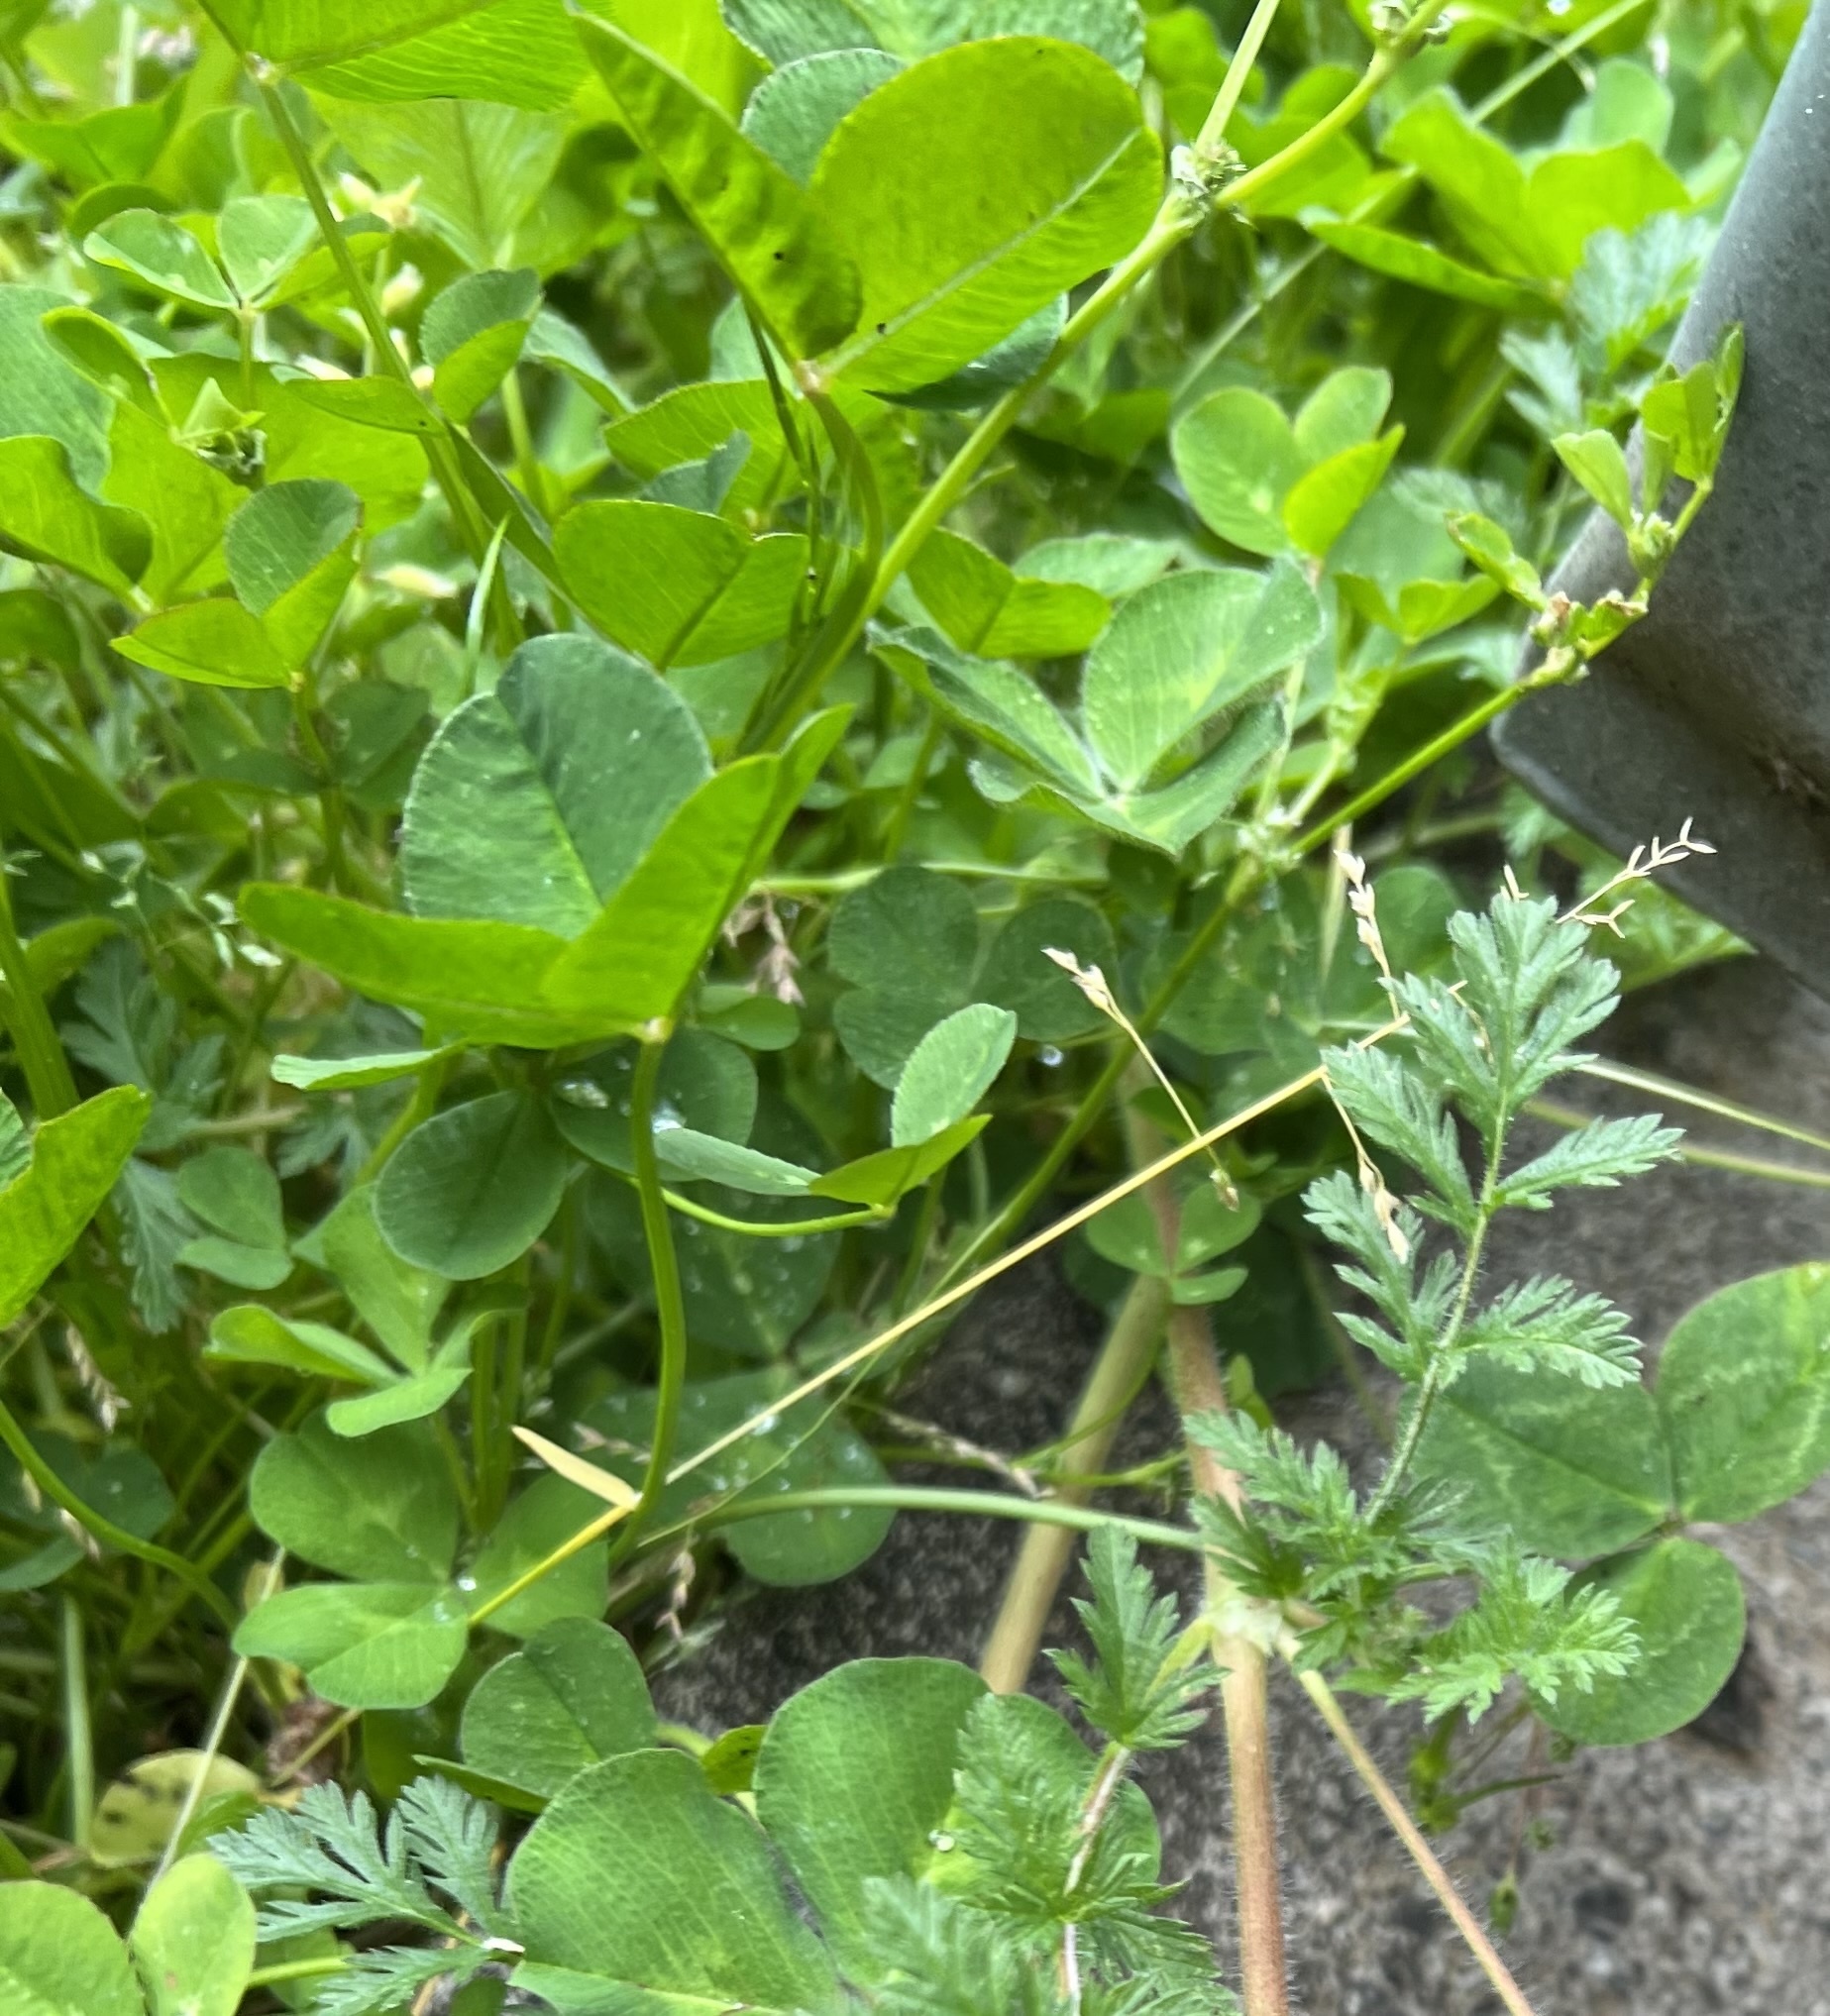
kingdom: Plantae
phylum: Tracheophyta
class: Magnoliopsida
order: Fabales
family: Fabaceae
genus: Trifolium
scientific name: Trifolium repens
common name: White clover
